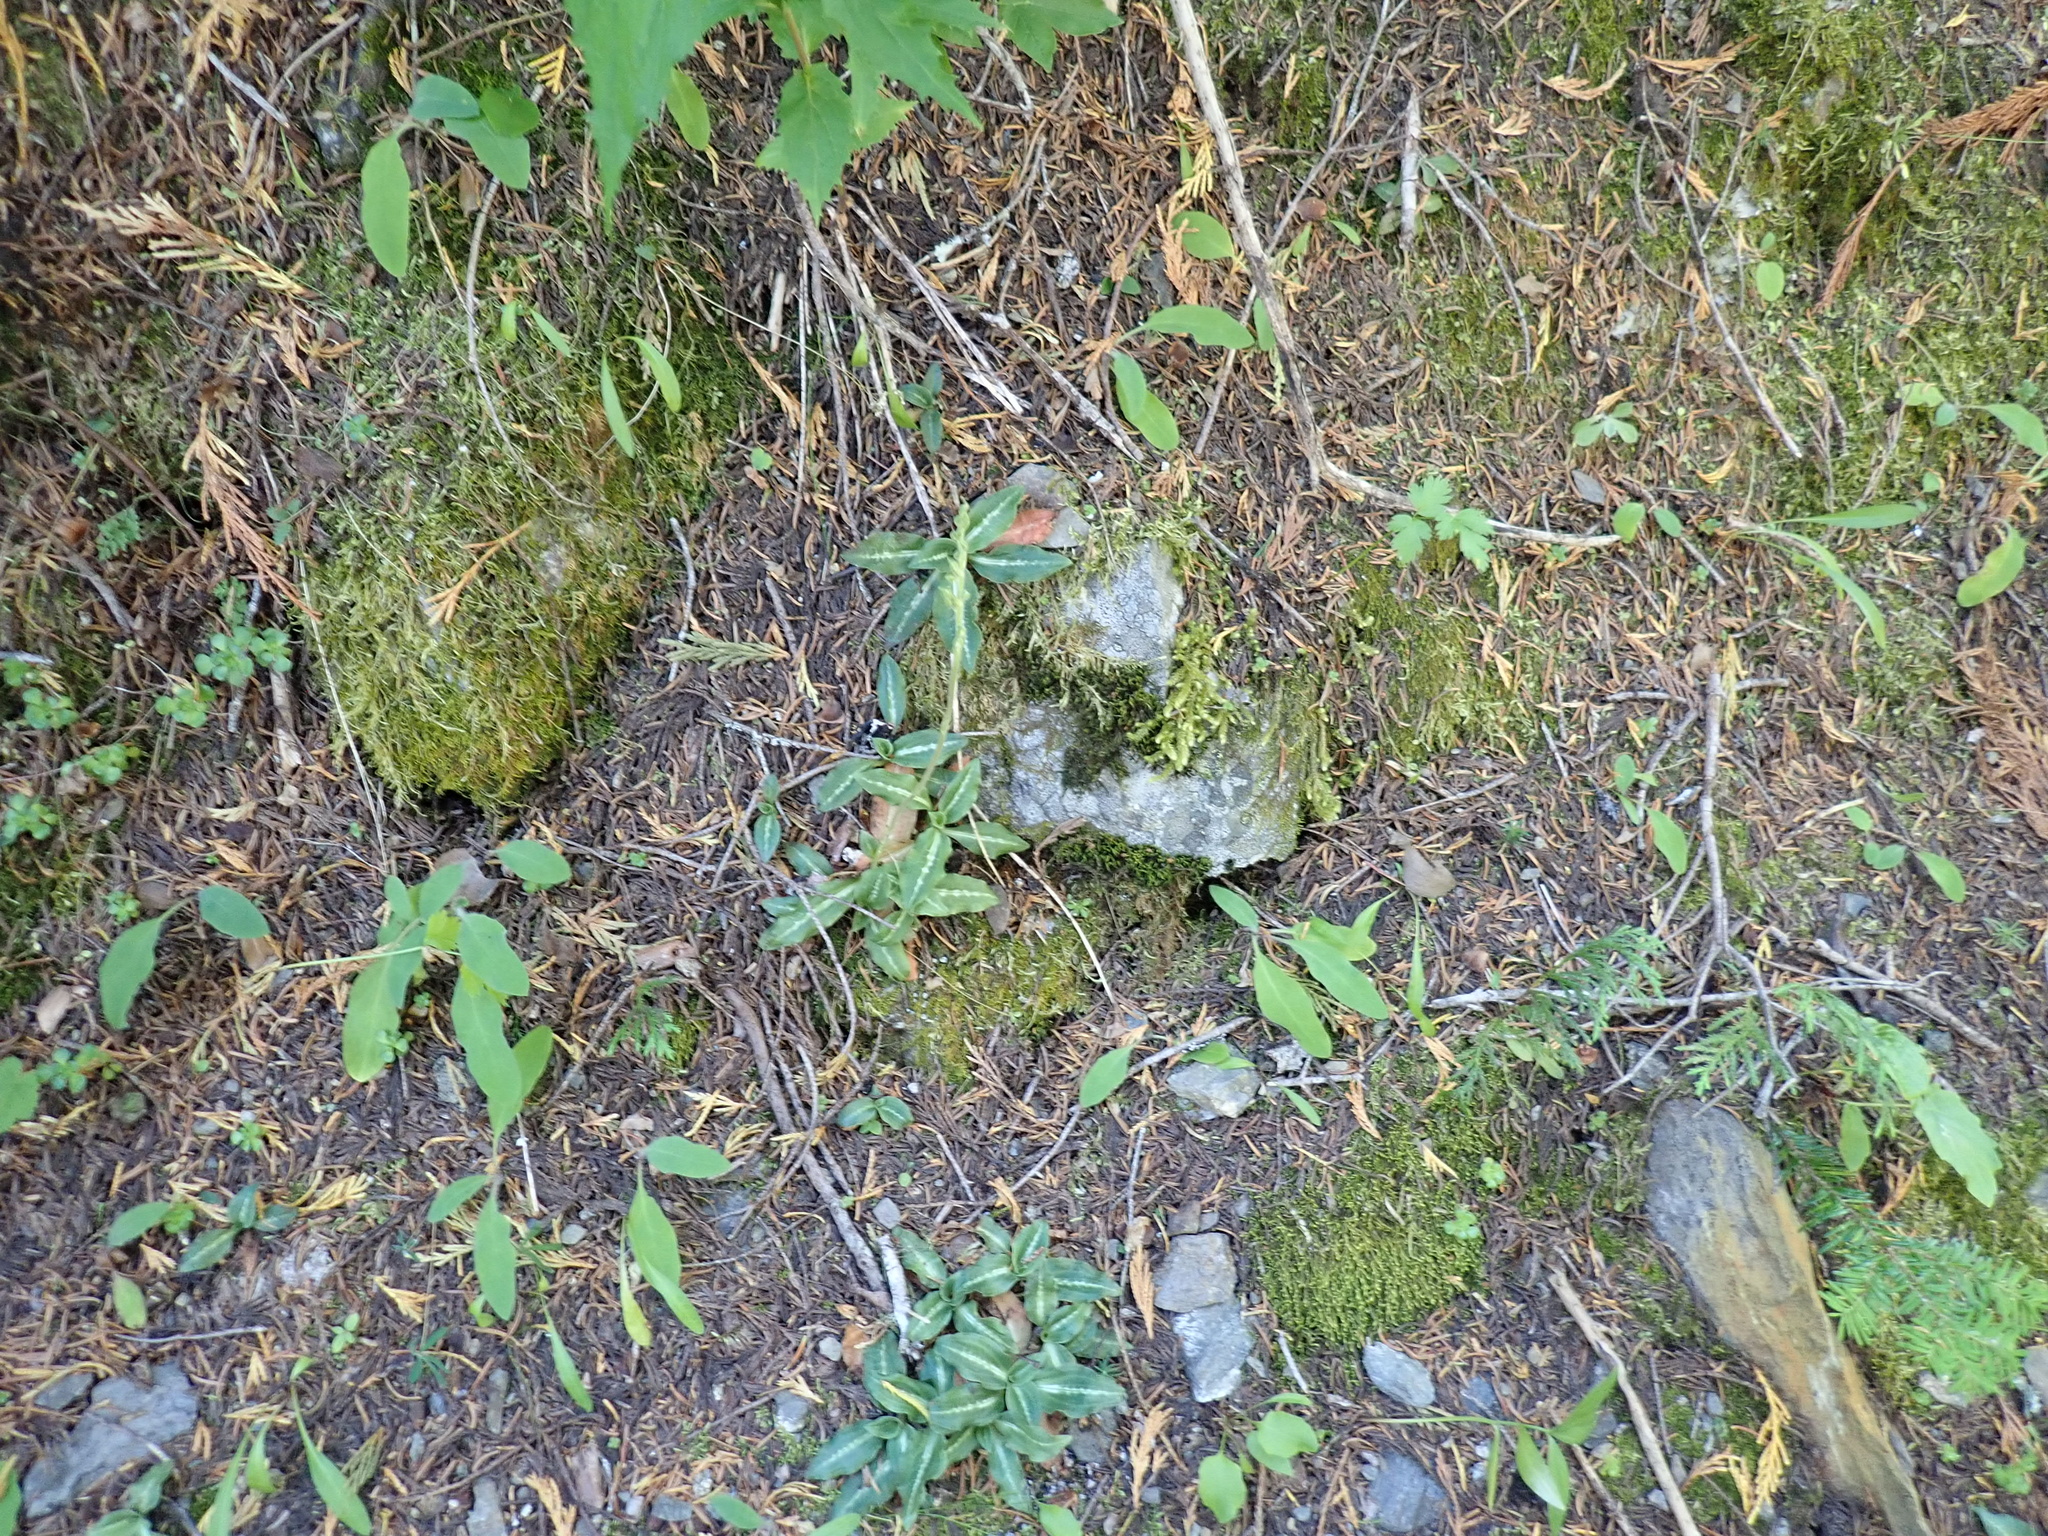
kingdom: Plantae
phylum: Tracheophyta
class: Liliopsida
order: Asparagales
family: Orchidaceae
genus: Goodyera
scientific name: Goodyera oblongifolia
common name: Giant rattlesnake-plantain
